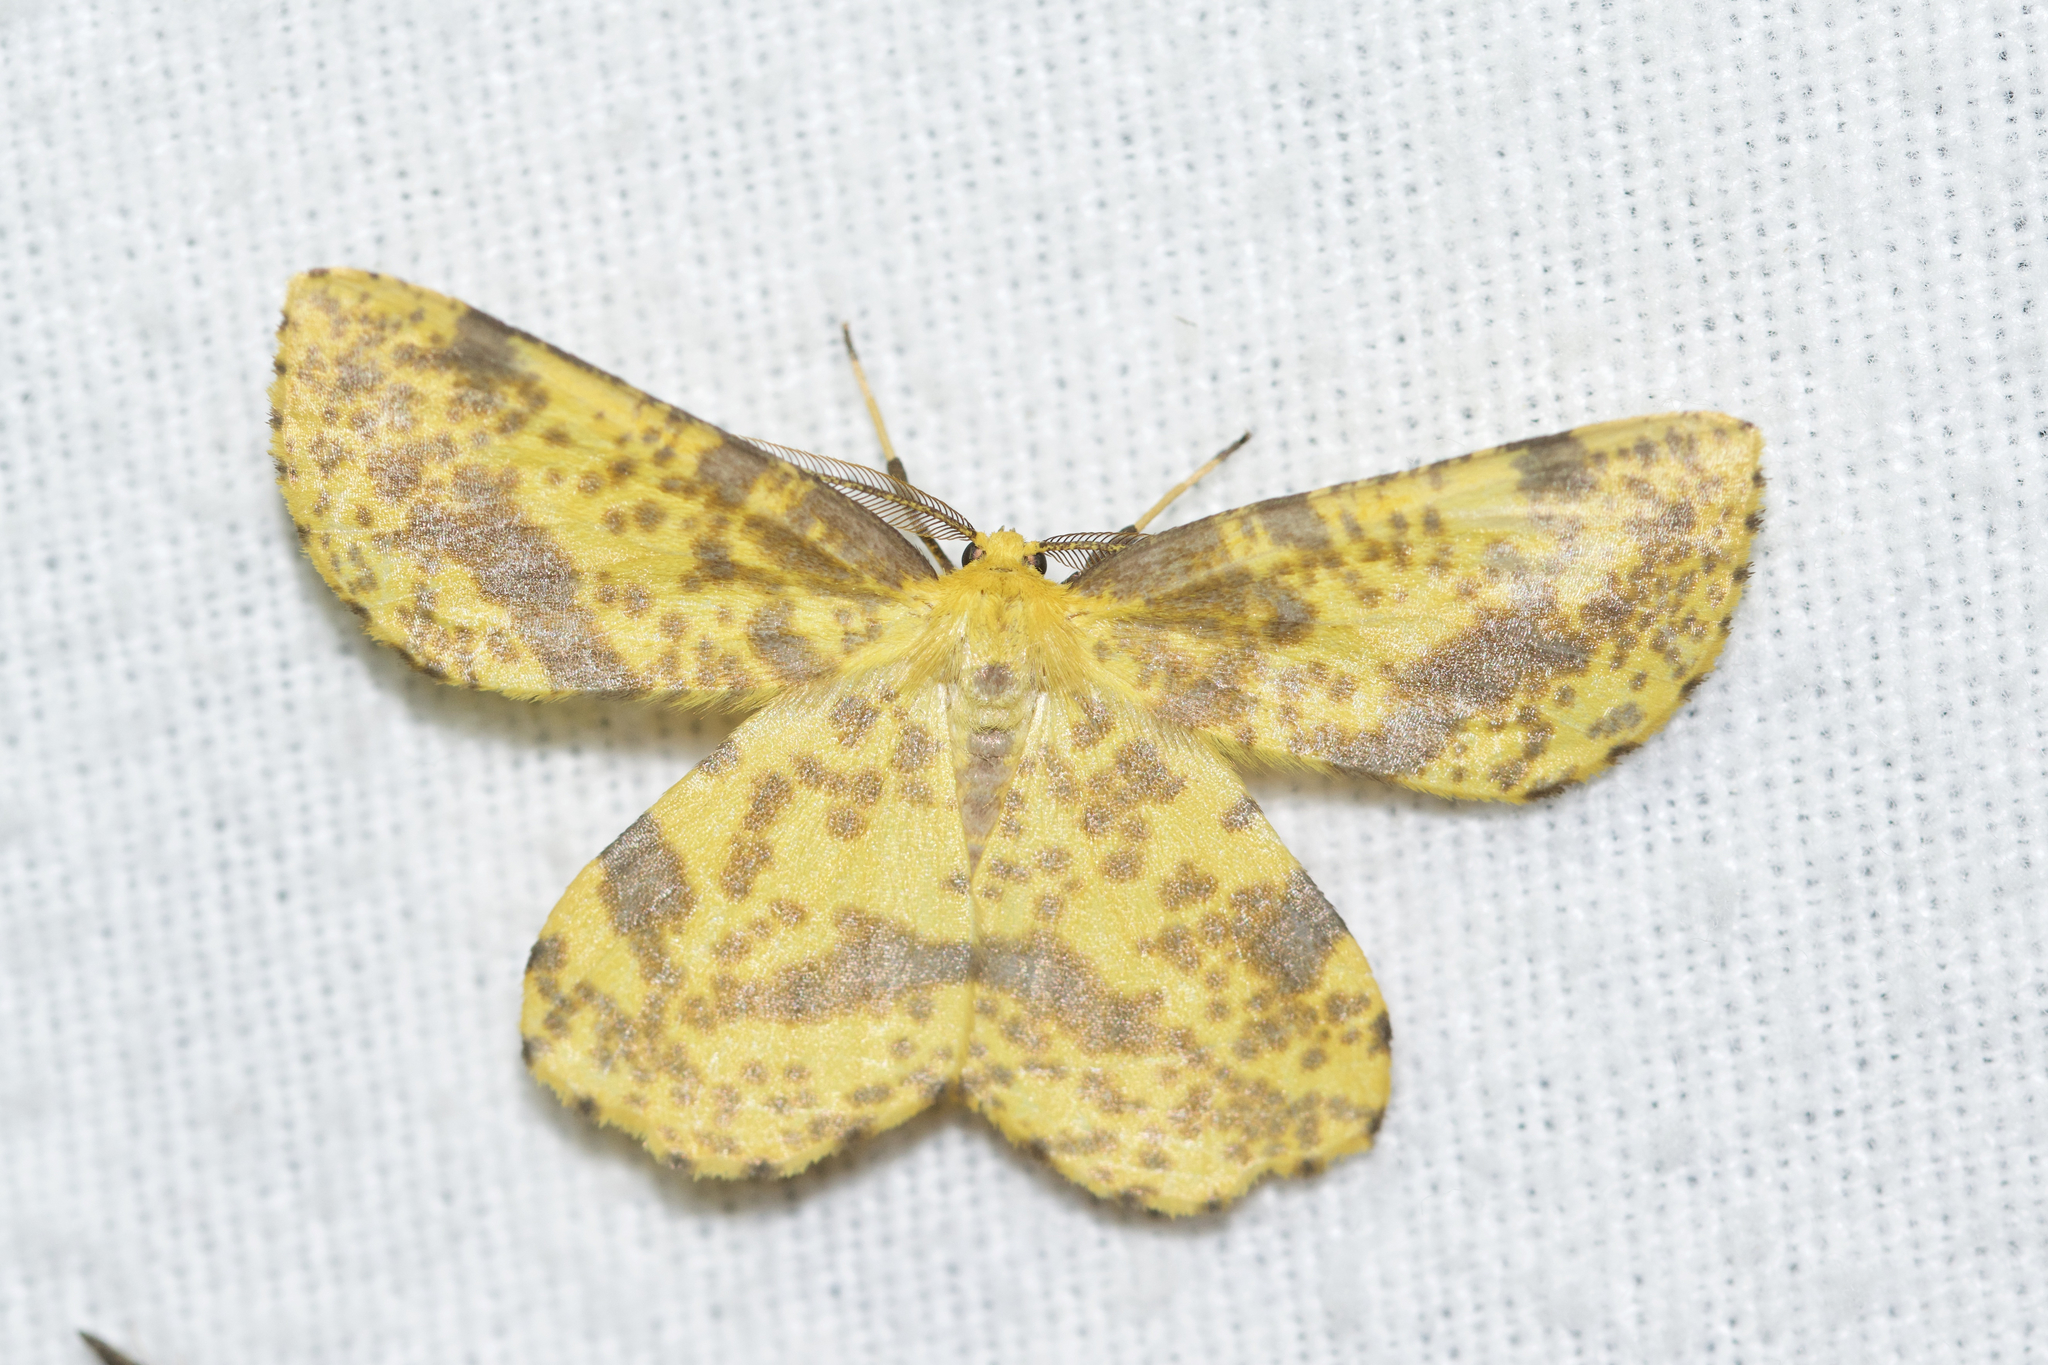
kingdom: Animalia
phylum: Arthropoda
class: Insecta
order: Lepidoptera
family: Geometridae
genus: Xanthotype
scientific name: Xanthotype
